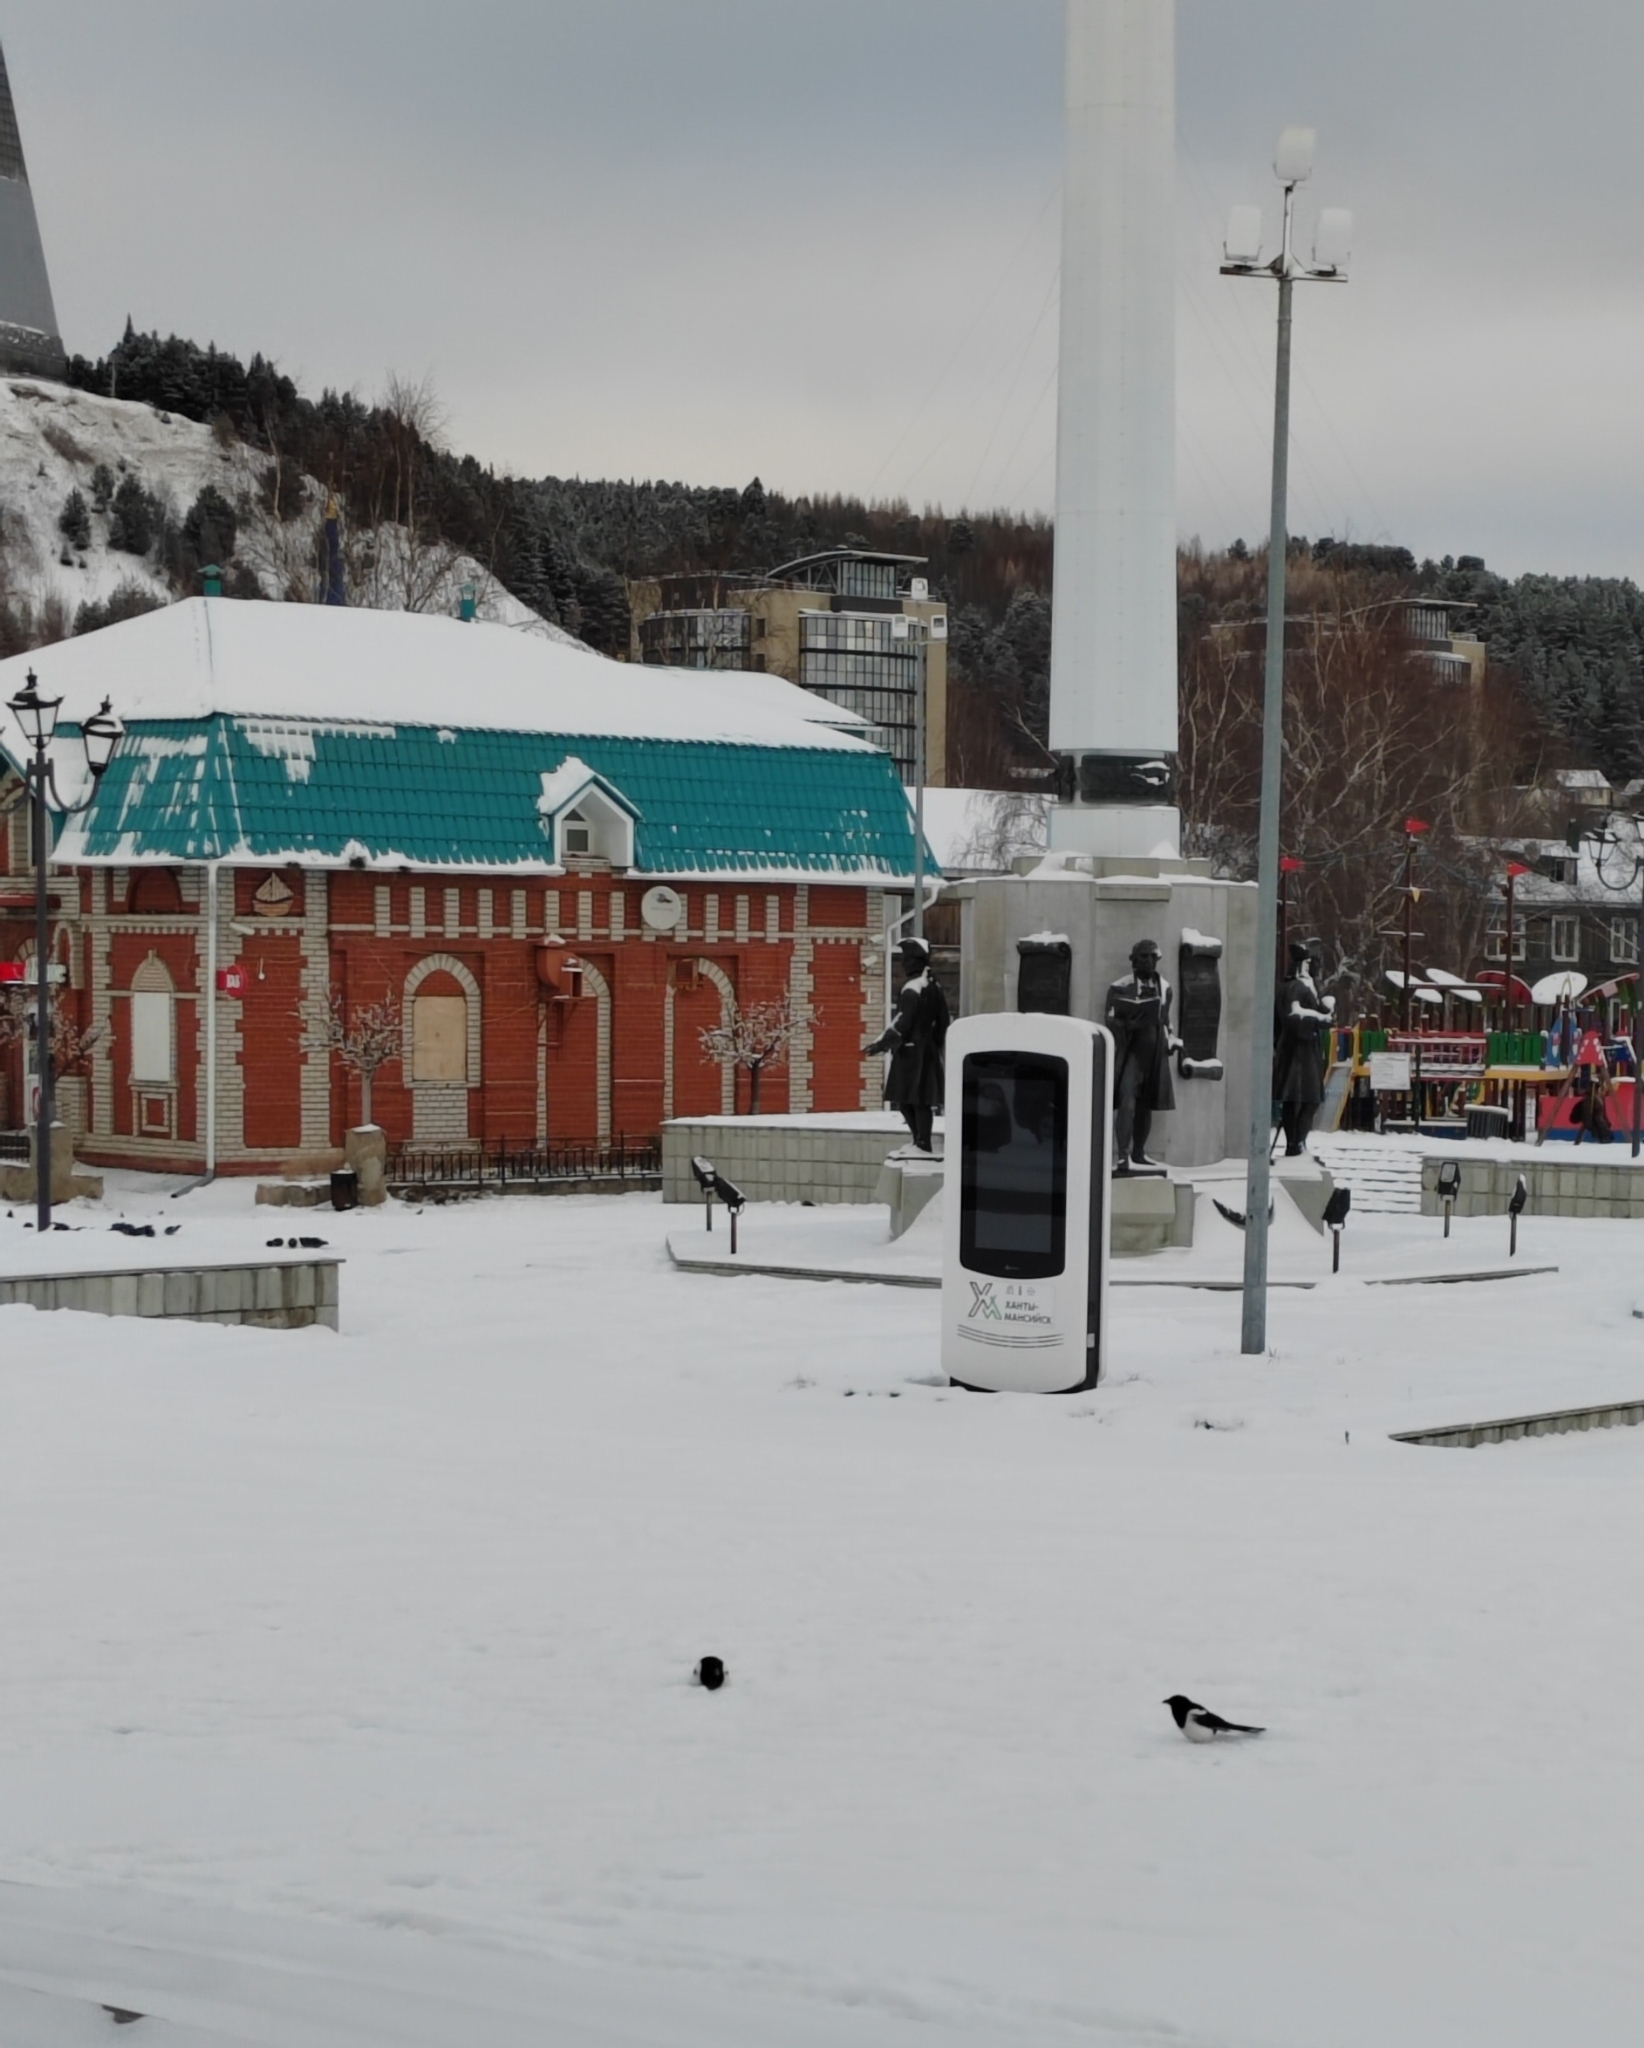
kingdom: Animalia
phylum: Chordata
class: Aves
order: Passeriformes
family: Corvidae
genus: Pica
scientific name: Pica pica
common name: Eurasian magpie
